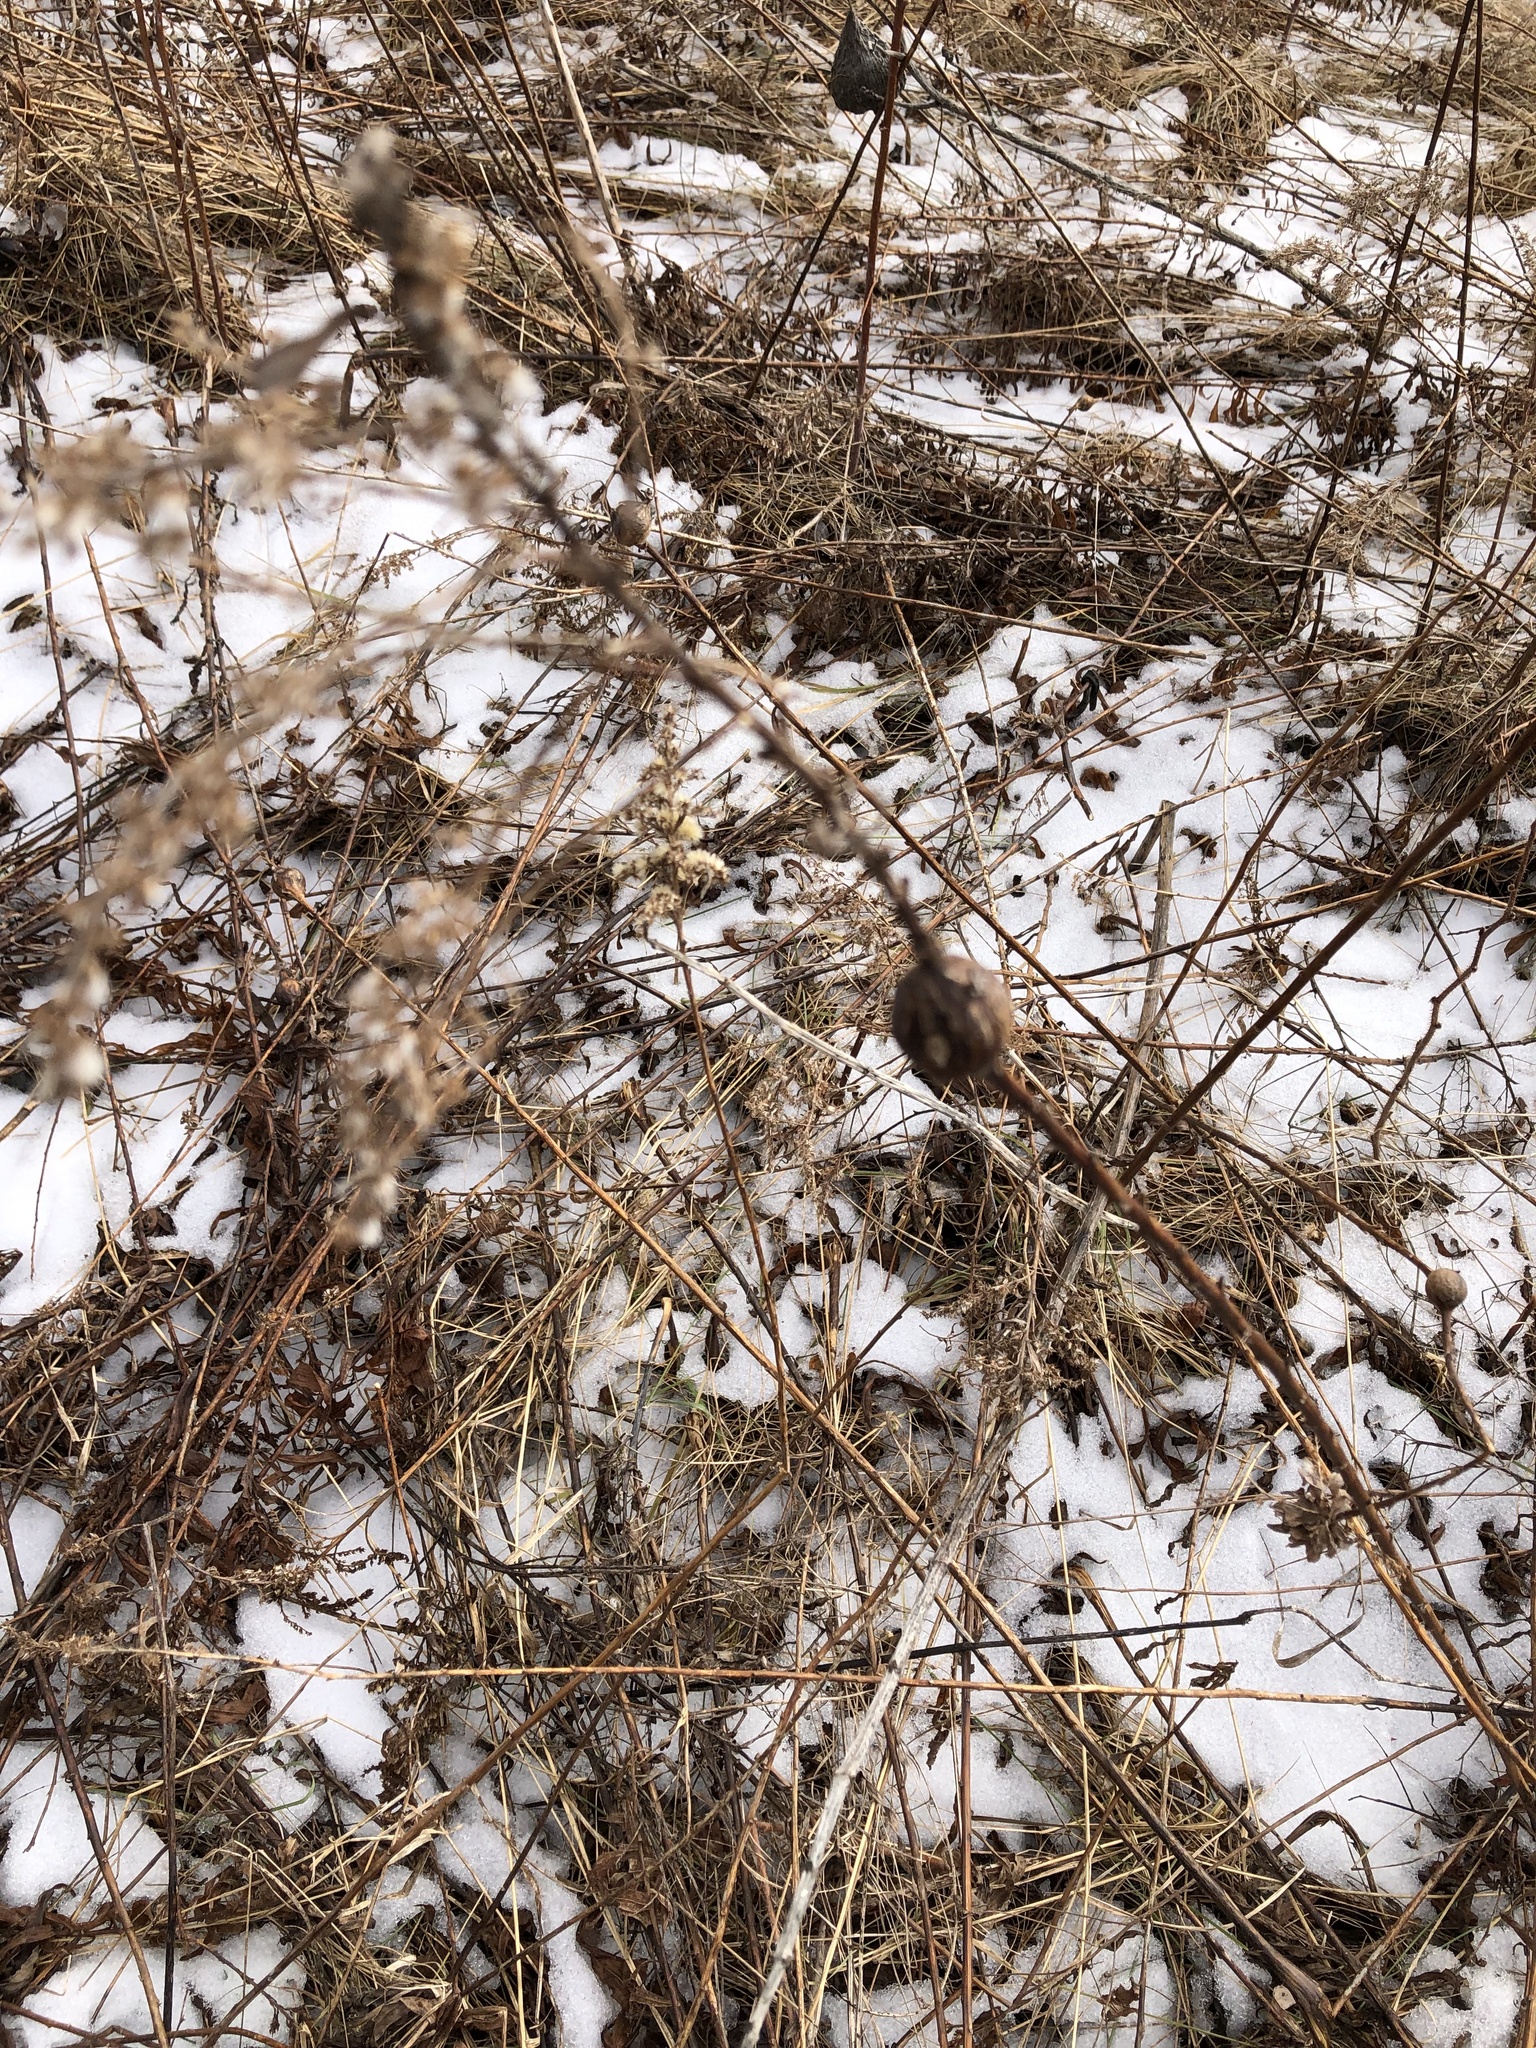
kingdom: Animalia
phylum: Arthropoda
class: Insecta
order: Diptera
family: Tephritidae
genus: Eurosta
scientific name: Eurosta solidaginis
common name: Goldenrod gall fly
